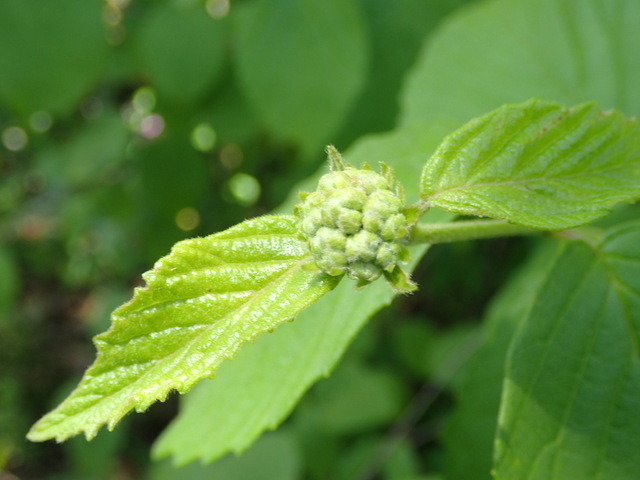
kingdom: Plantae
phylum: Tracheophyta
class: Magnoliopsida
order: Dipsacales
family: Viburnaceae
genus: Viburnum
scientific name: Viburnum scabrellum
